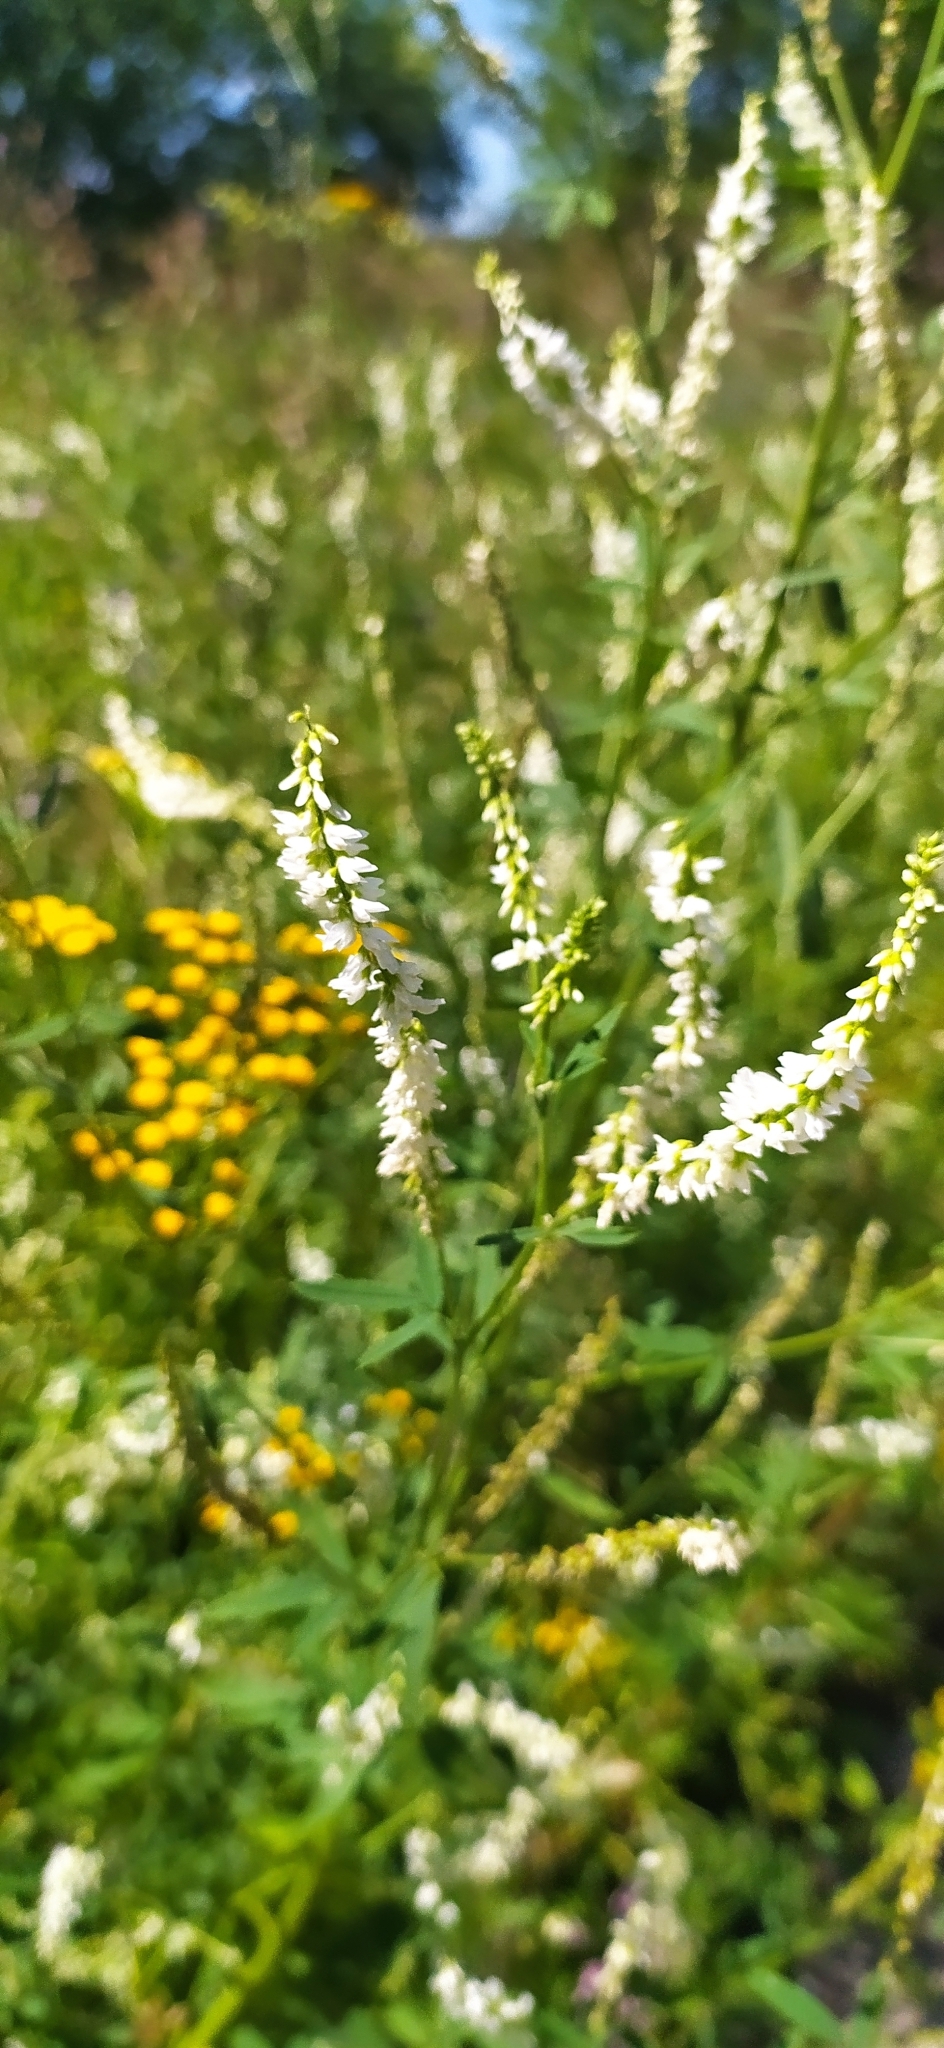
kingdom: Plantae
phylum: Tracheophyta
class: Magnoliopsida
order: Fabales
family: Fabaceae
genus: Melilotus
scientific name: Melilotus albus
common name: White melilot
